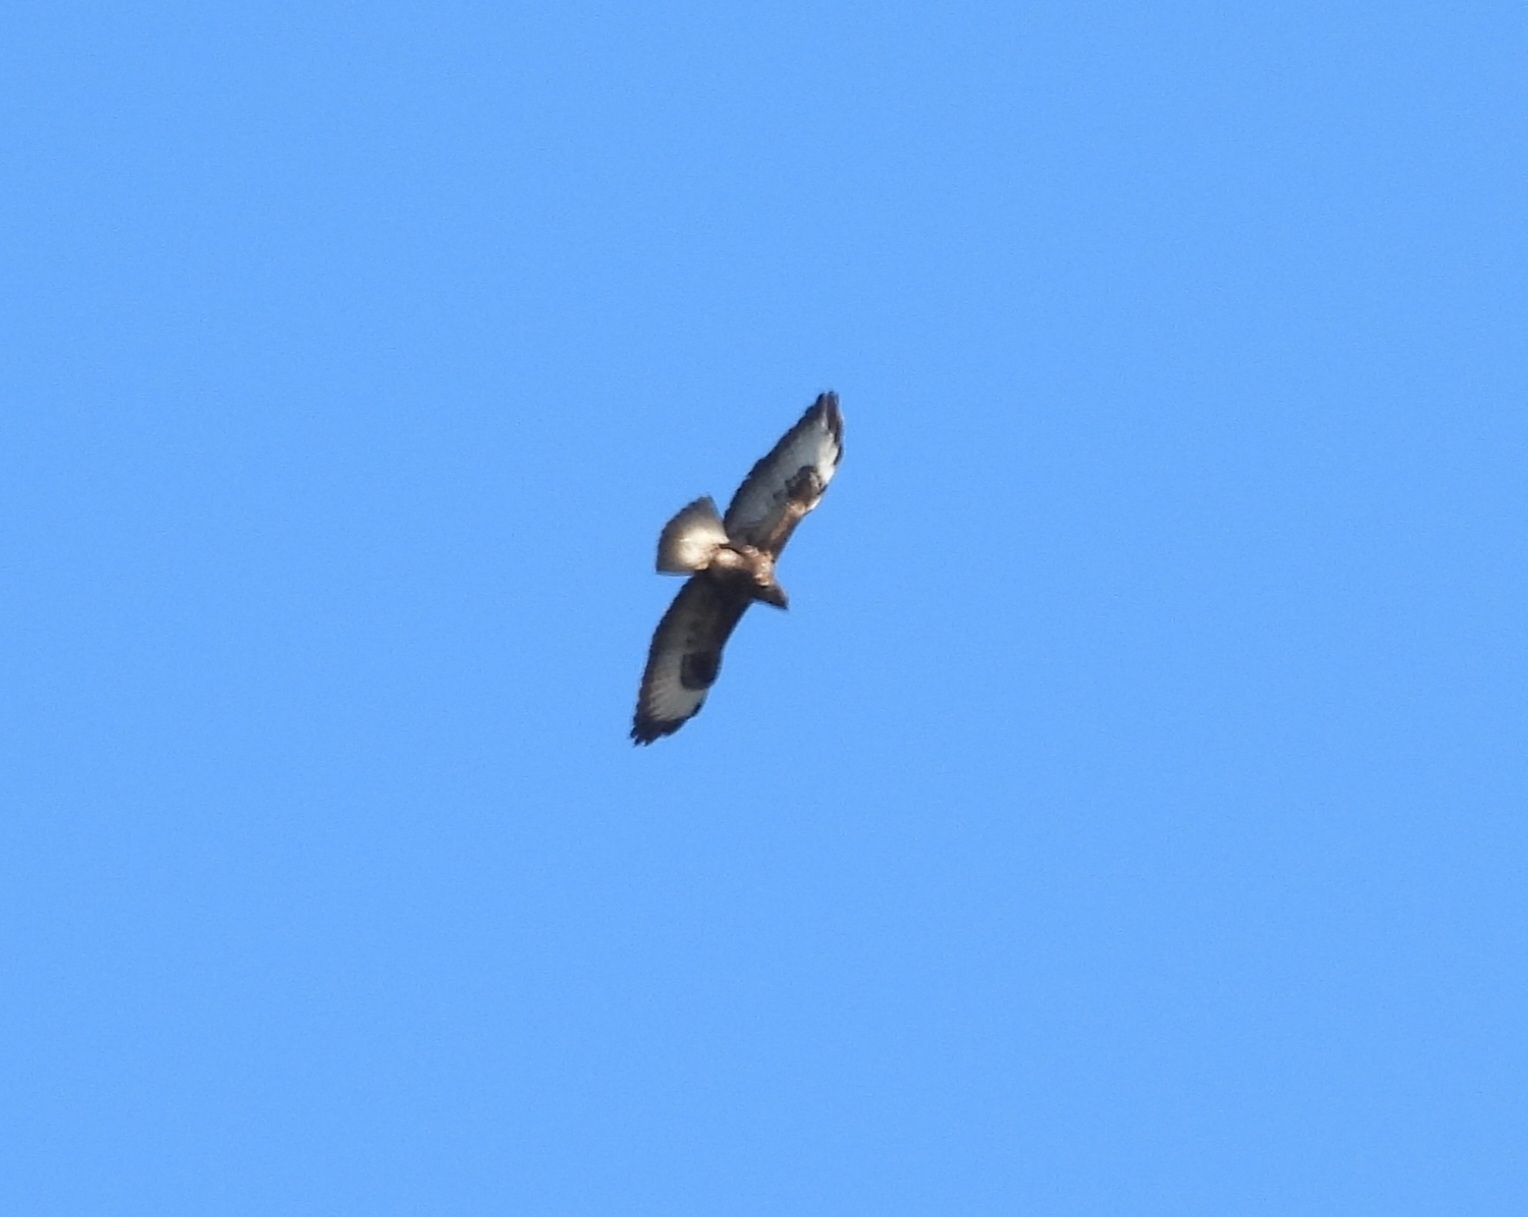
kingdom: Animalia
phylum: Chordata
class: Aves
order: Accipitriformes
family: Accipitridae
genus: Buteo
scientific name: Buteo buteo
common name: Common buzzard
